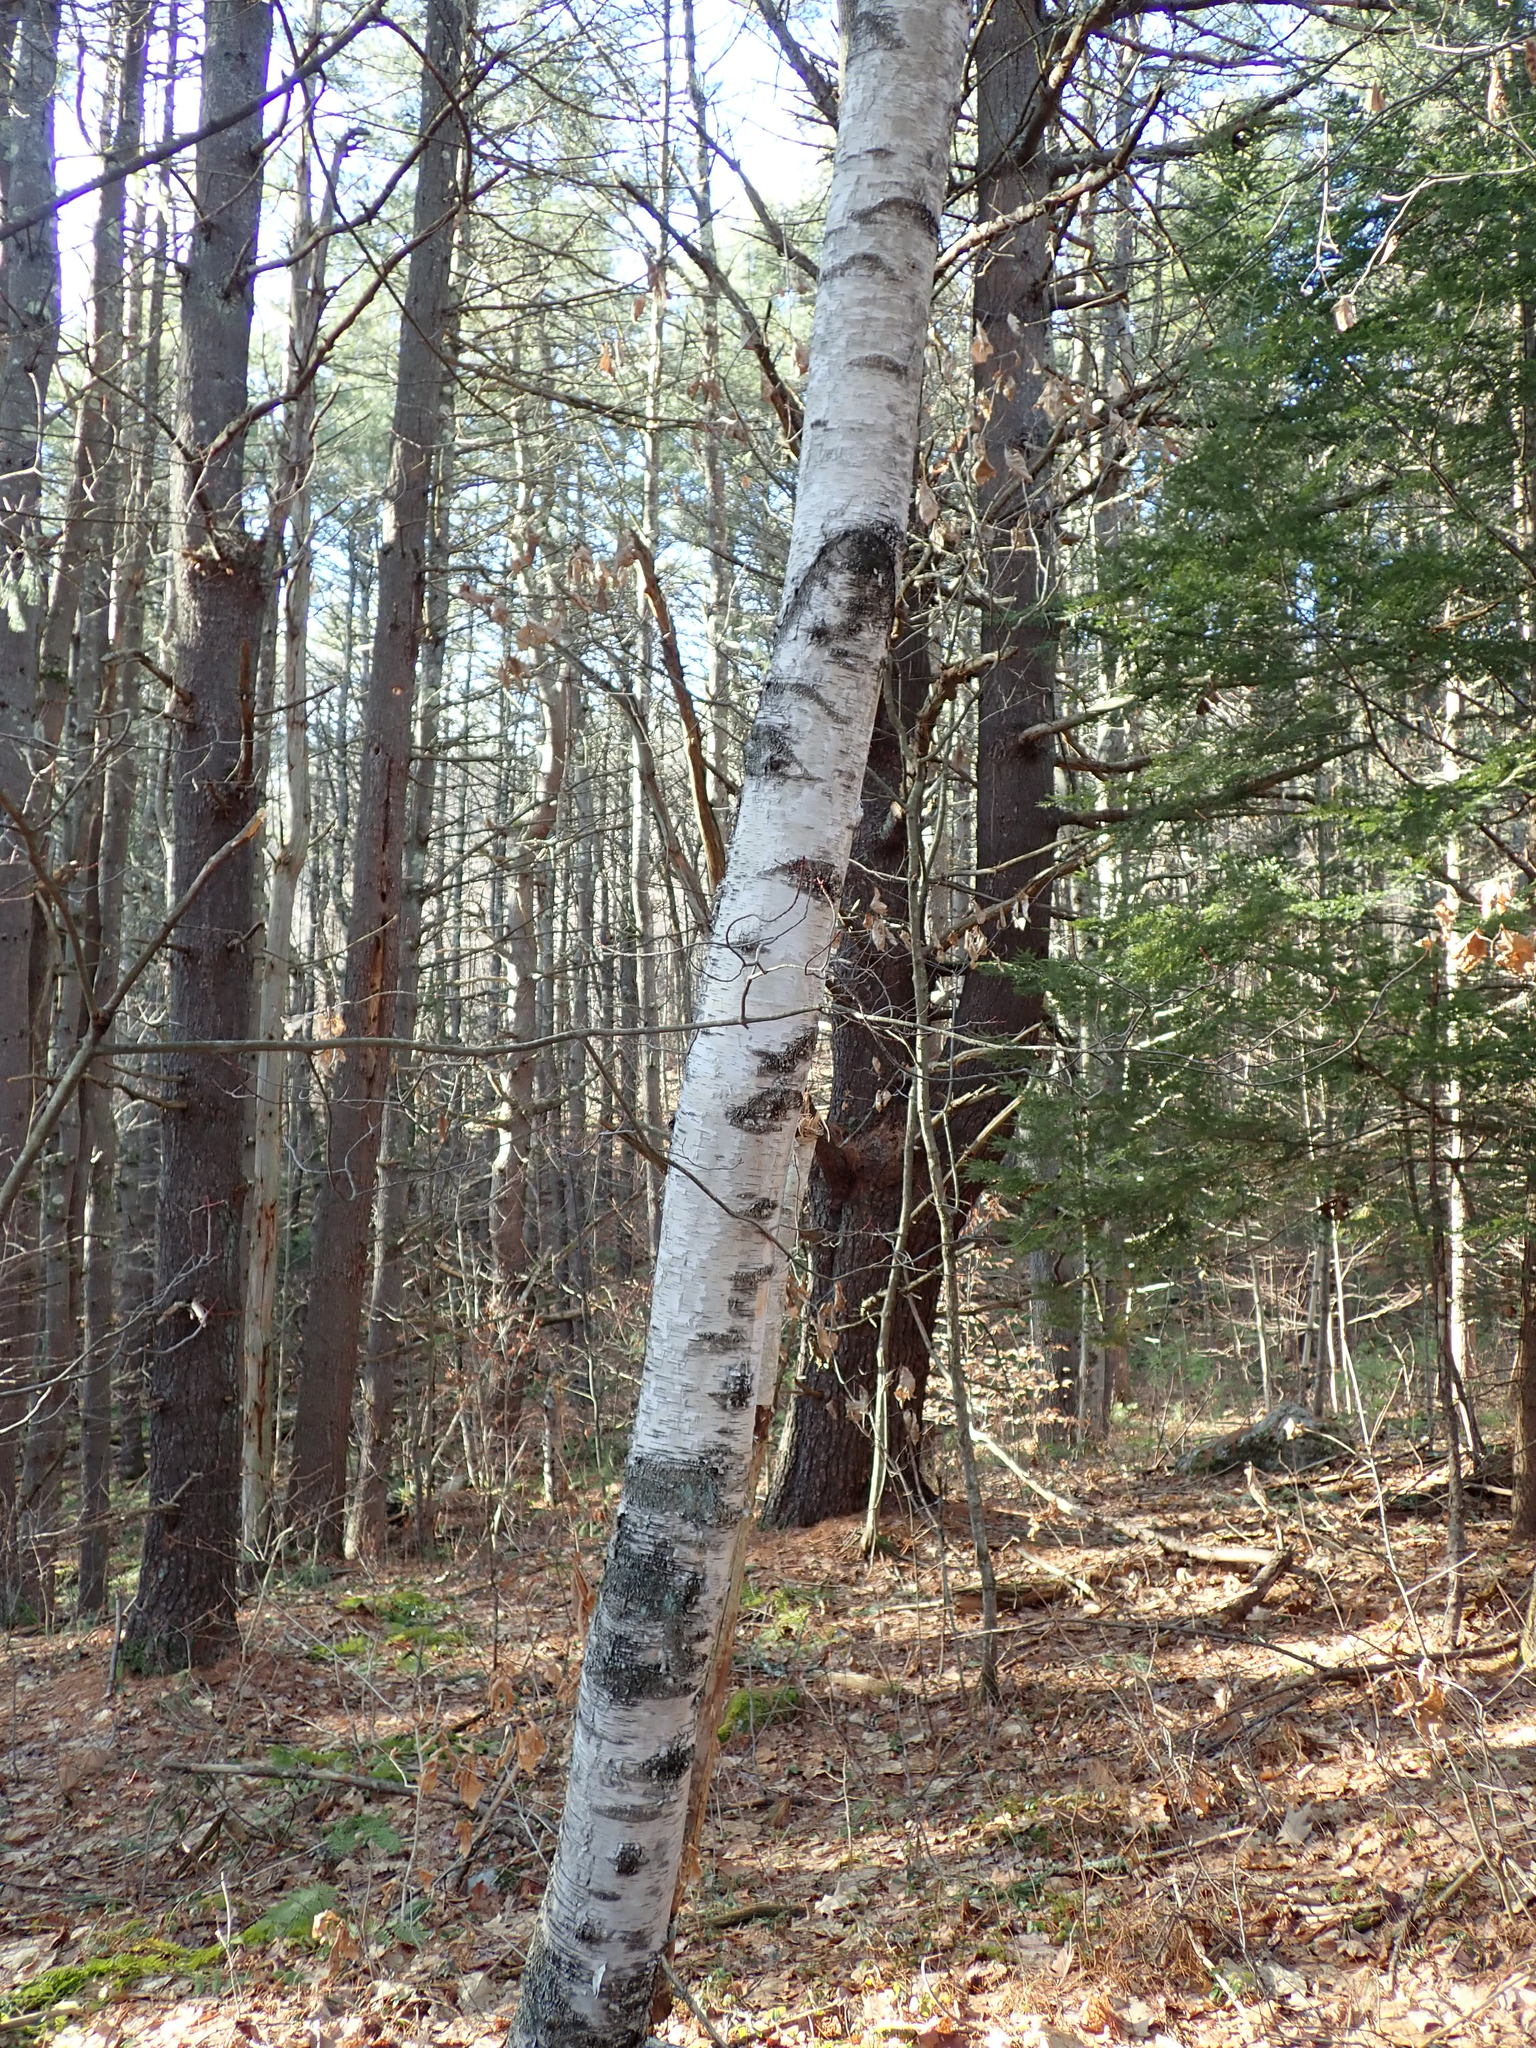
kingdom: Plantae
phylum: Tracheophyta
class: Magnoliopsida
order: Fagales
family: Betulaceae
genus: Betula
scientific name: Betula papyrifera
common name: Paper birch
